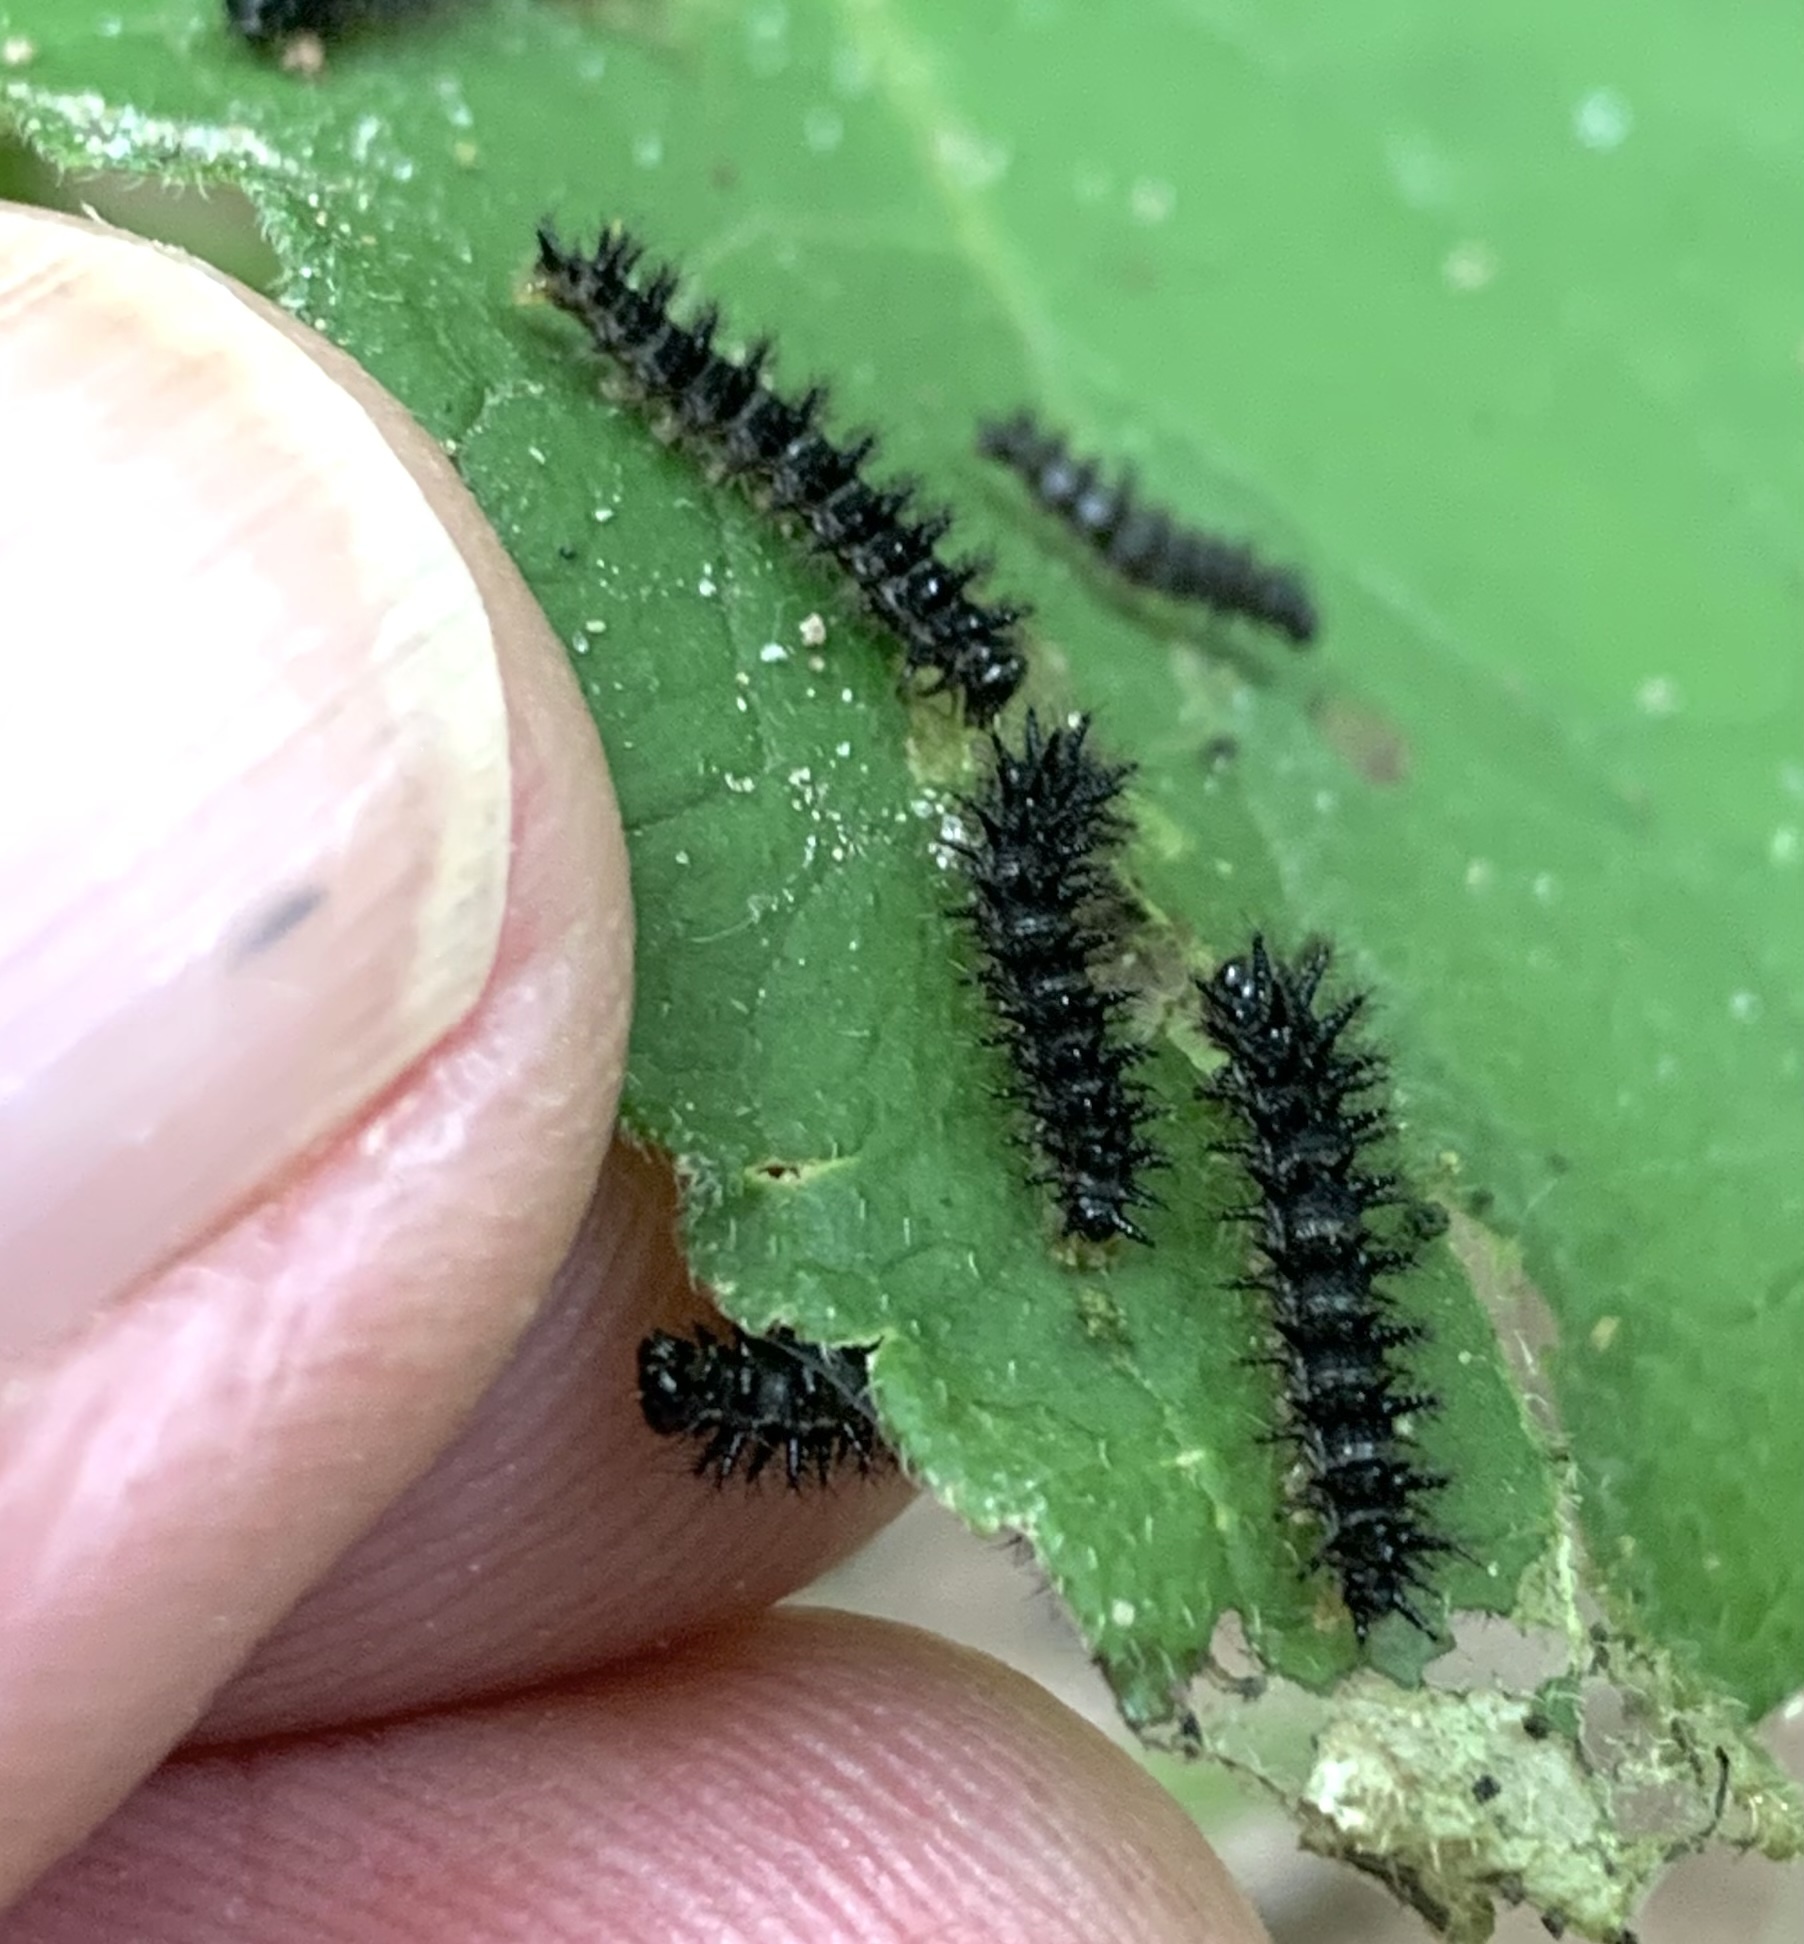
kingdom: Animalia
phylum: Arthropoda
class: Insecta
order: Lepidoptera
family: Nymphalidae
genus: Chlosyne
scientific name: Chlosyne nycteis
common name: Silvery checkerspot
